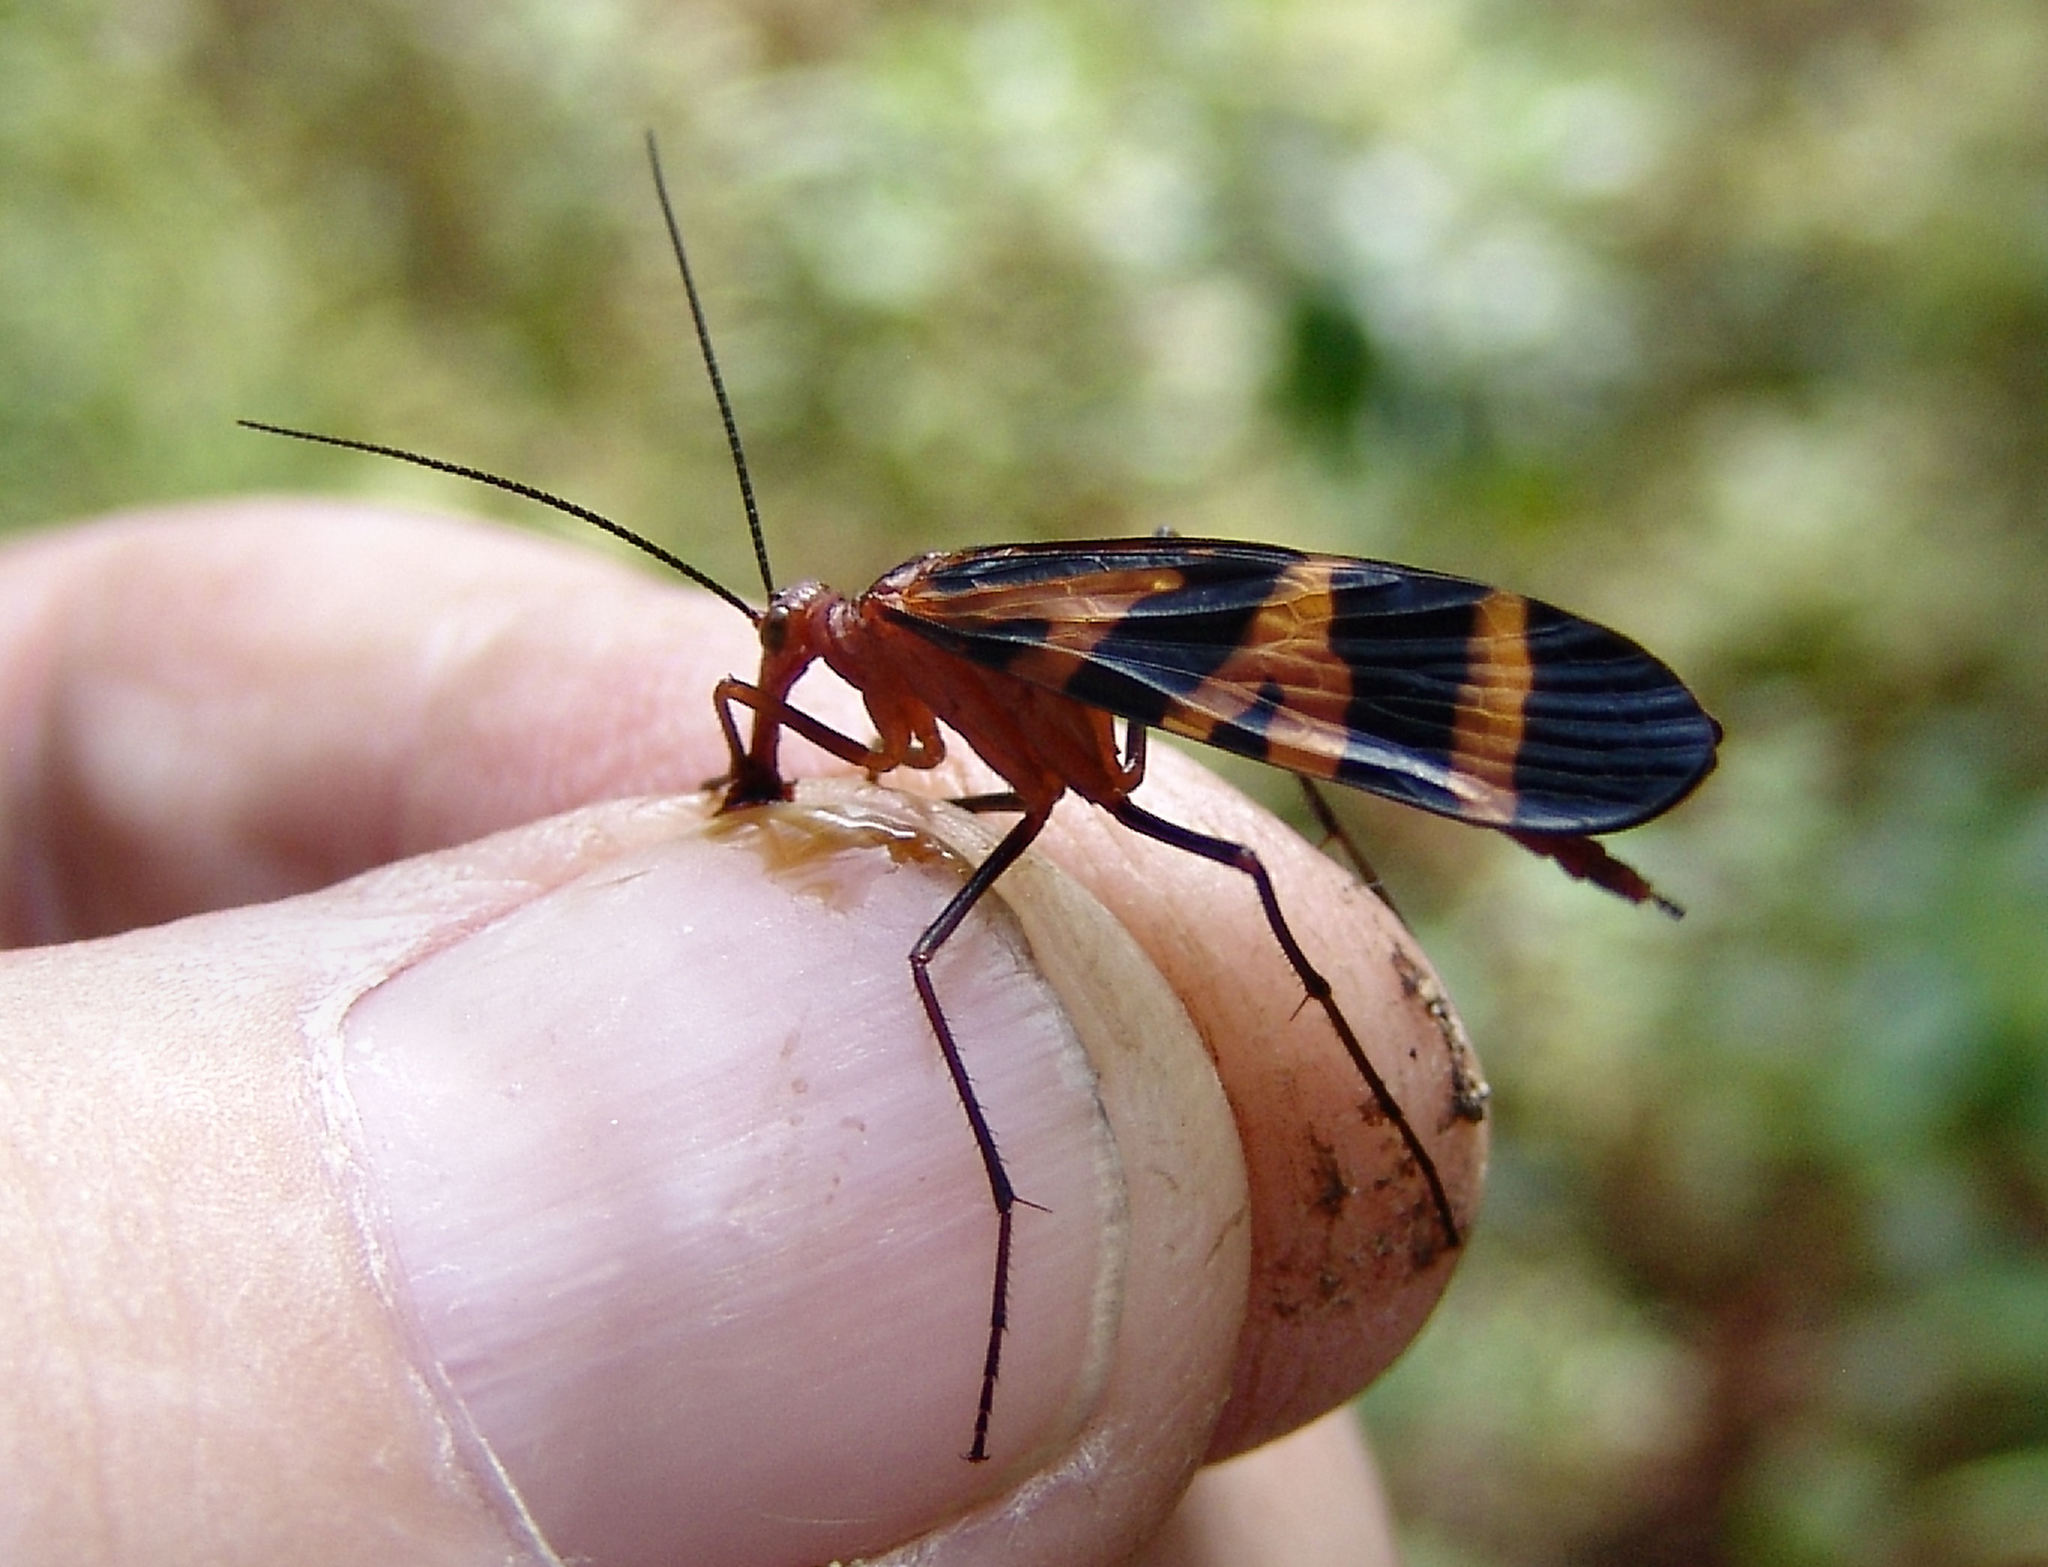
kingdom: Animalia
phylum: Arthropoda
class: Insecta
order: Mecoptera
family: Panorpidae
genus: Panorpa
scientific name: Panorpa nuptialis
